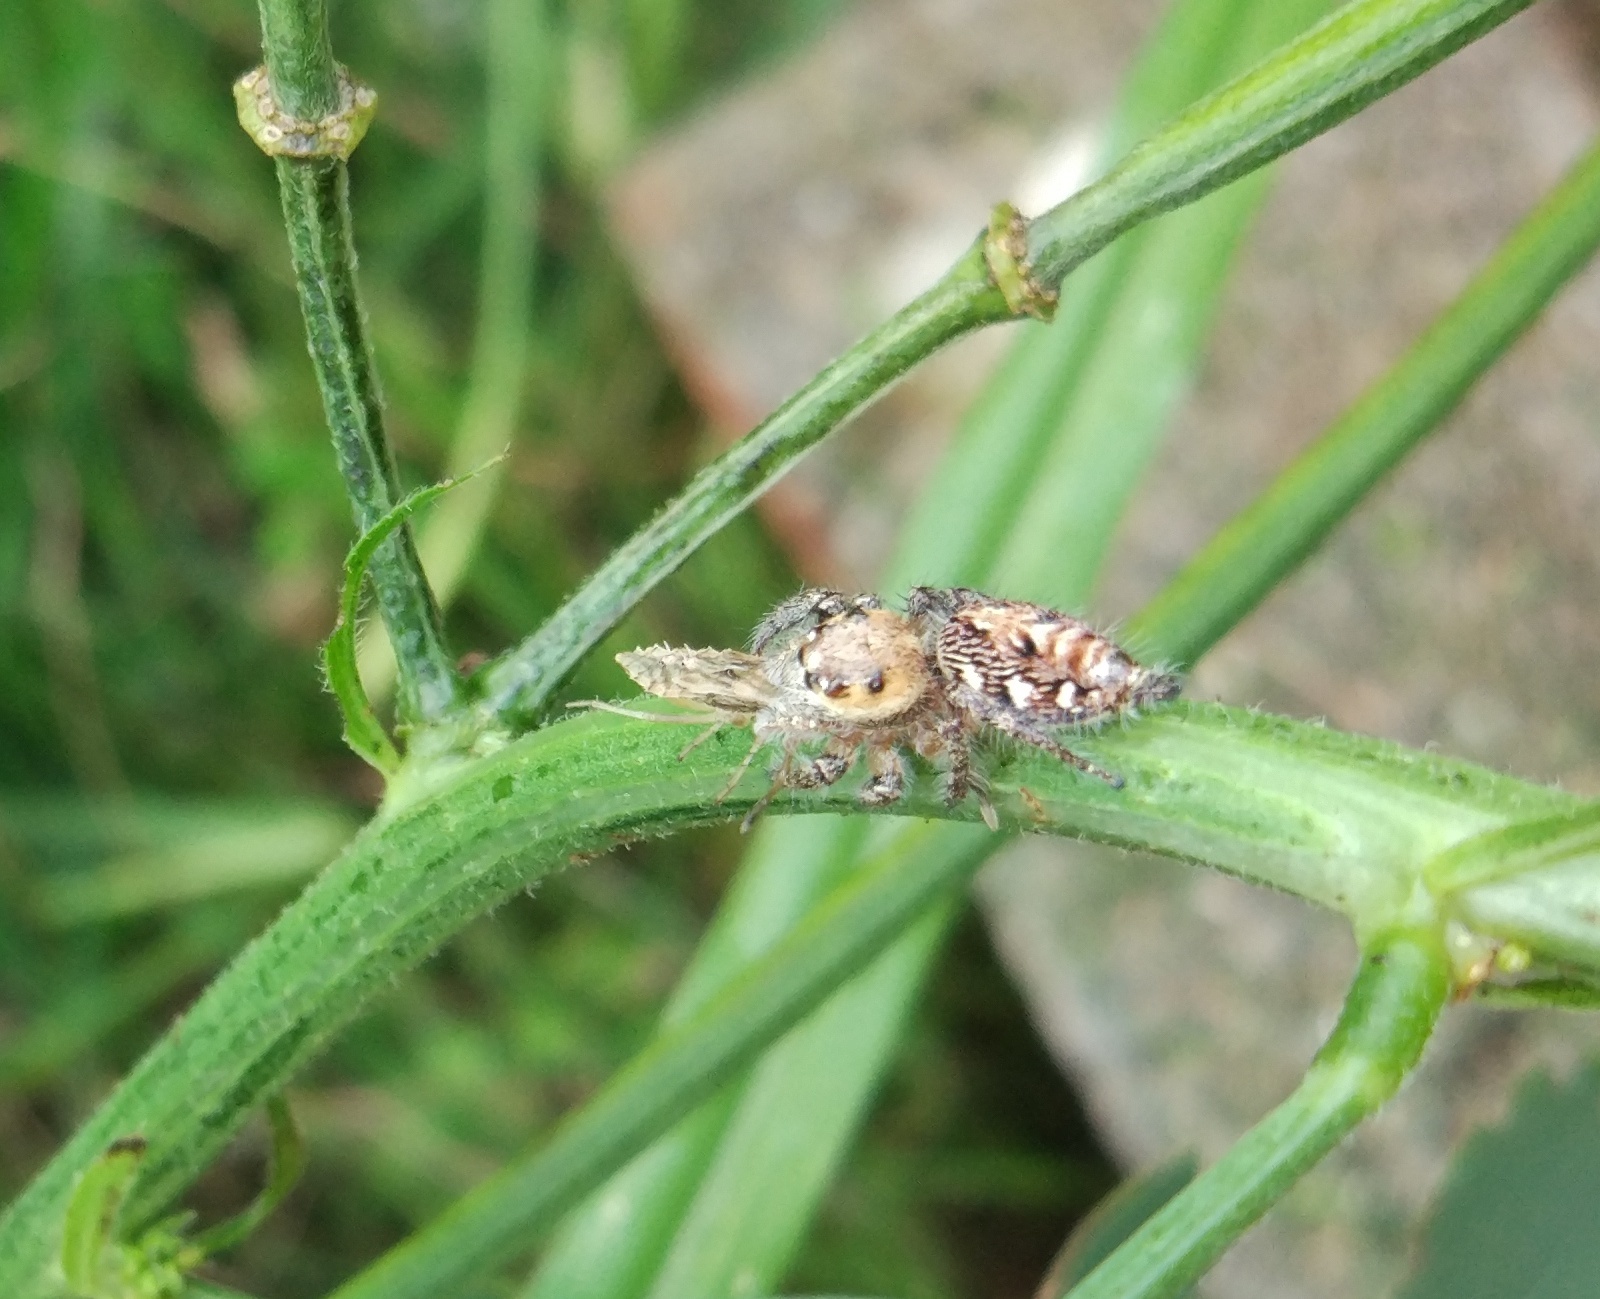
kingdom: Animalia
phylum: Arthropoda
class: Arachnida
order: Araneae
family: Salticidae
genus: Hyllus
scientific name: Hyllus semicupreus
